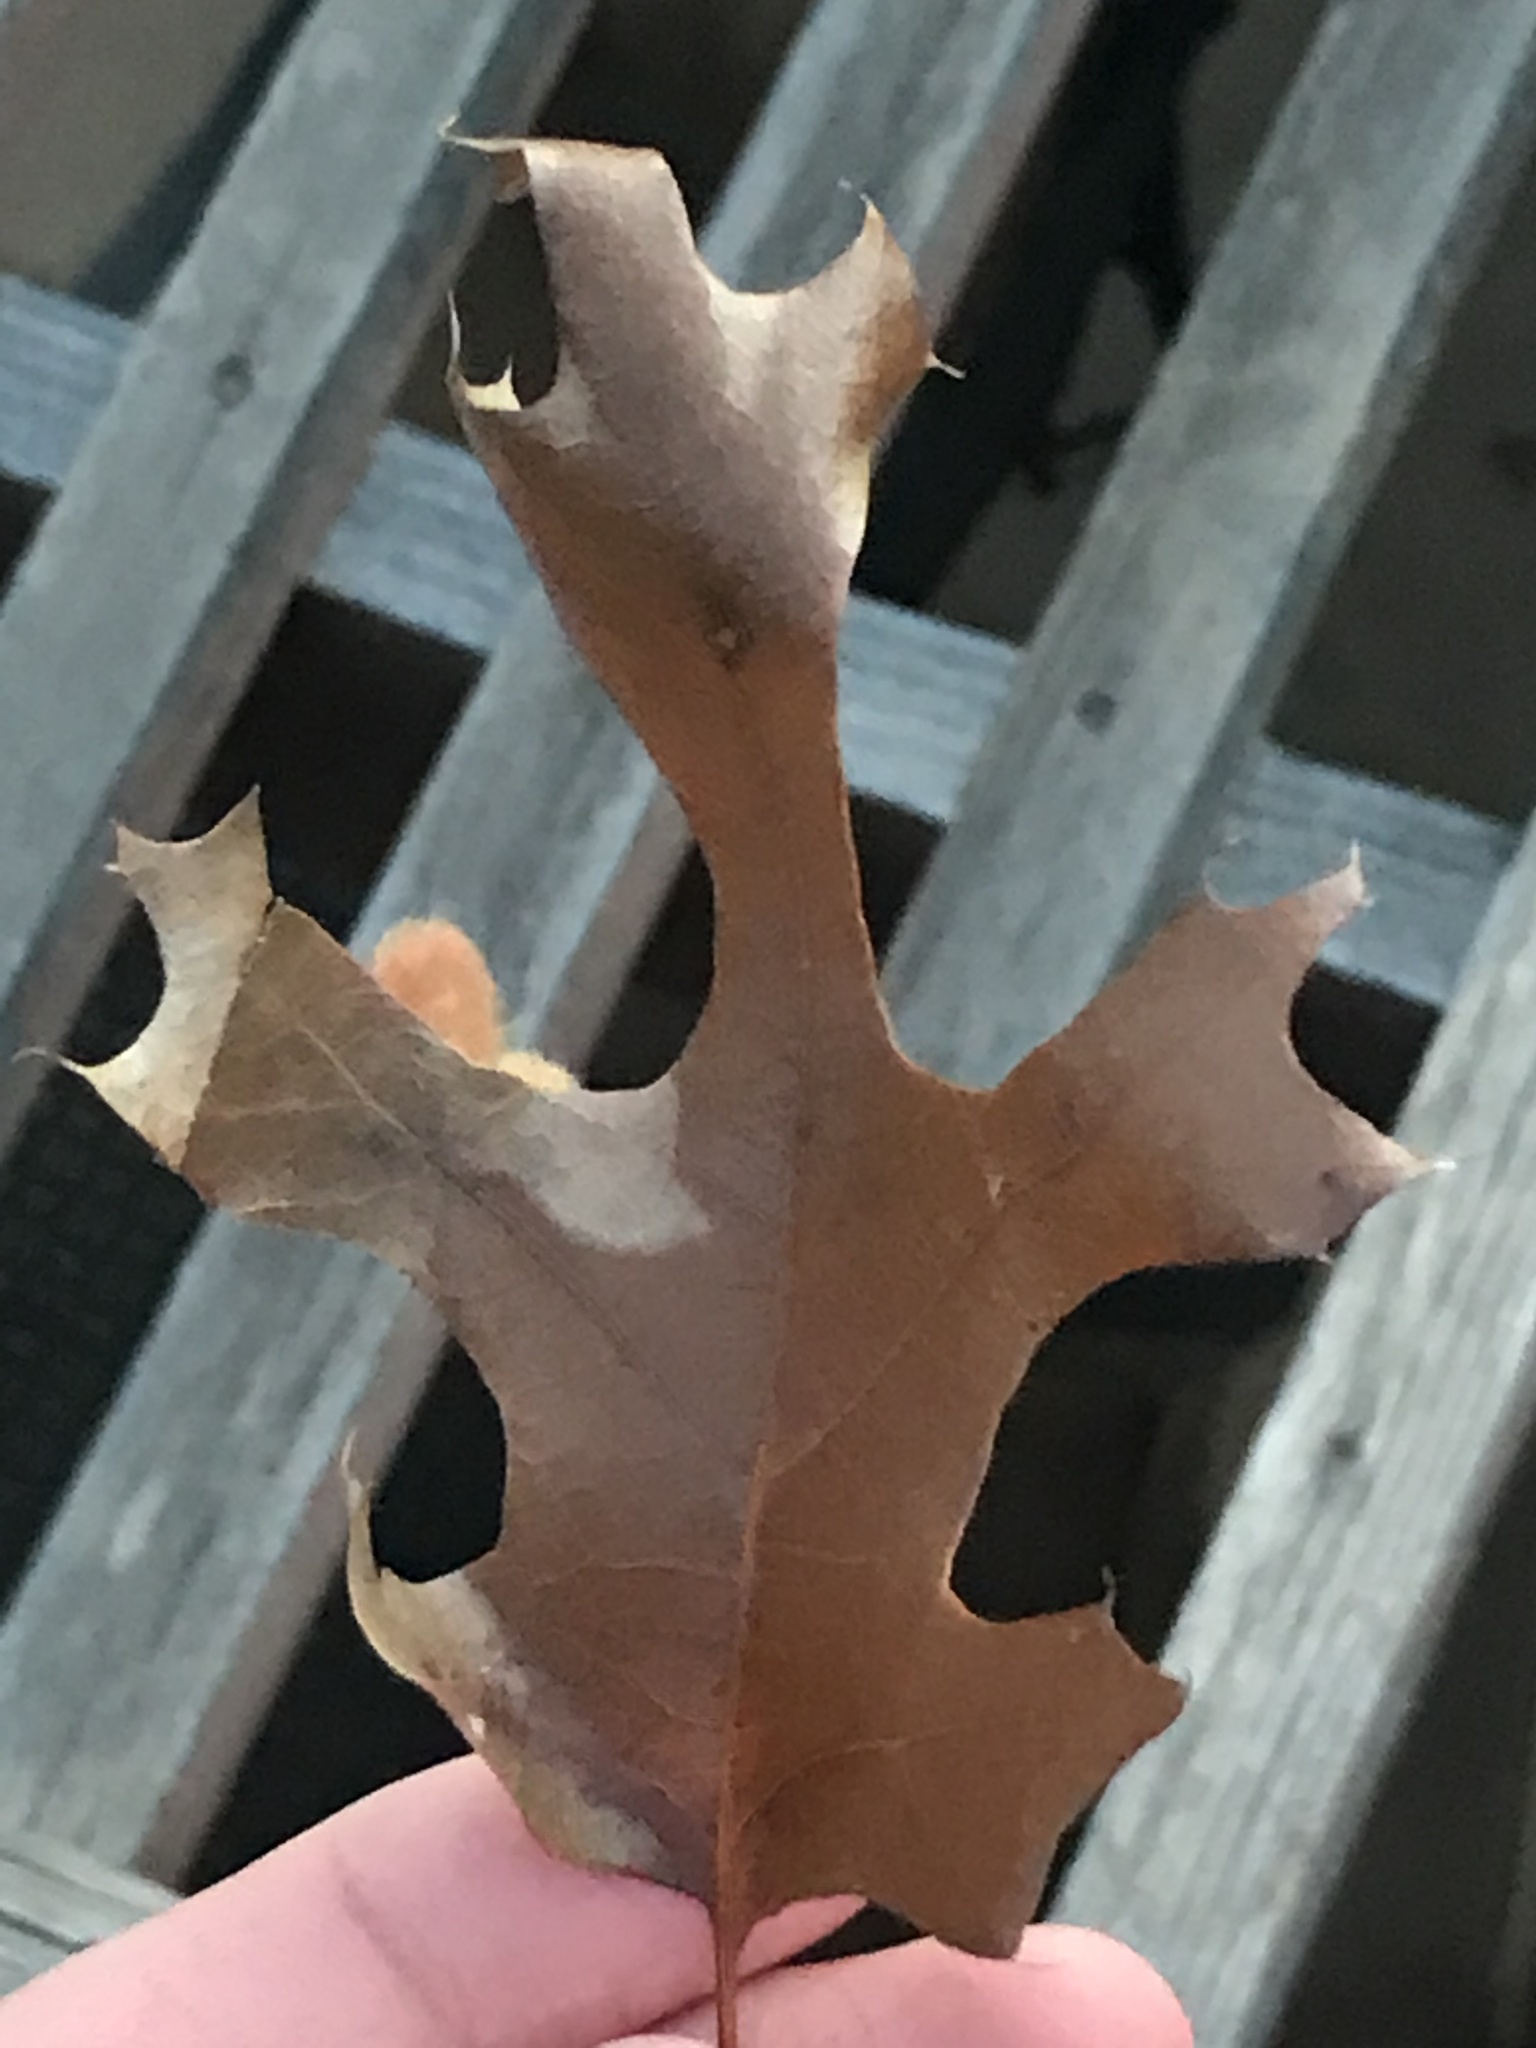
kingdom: Animalia
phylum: Arthropoda
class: Insecta
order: Hymenoptera
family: Cynipidae
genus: Callirhytis
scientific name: Callirhytis
